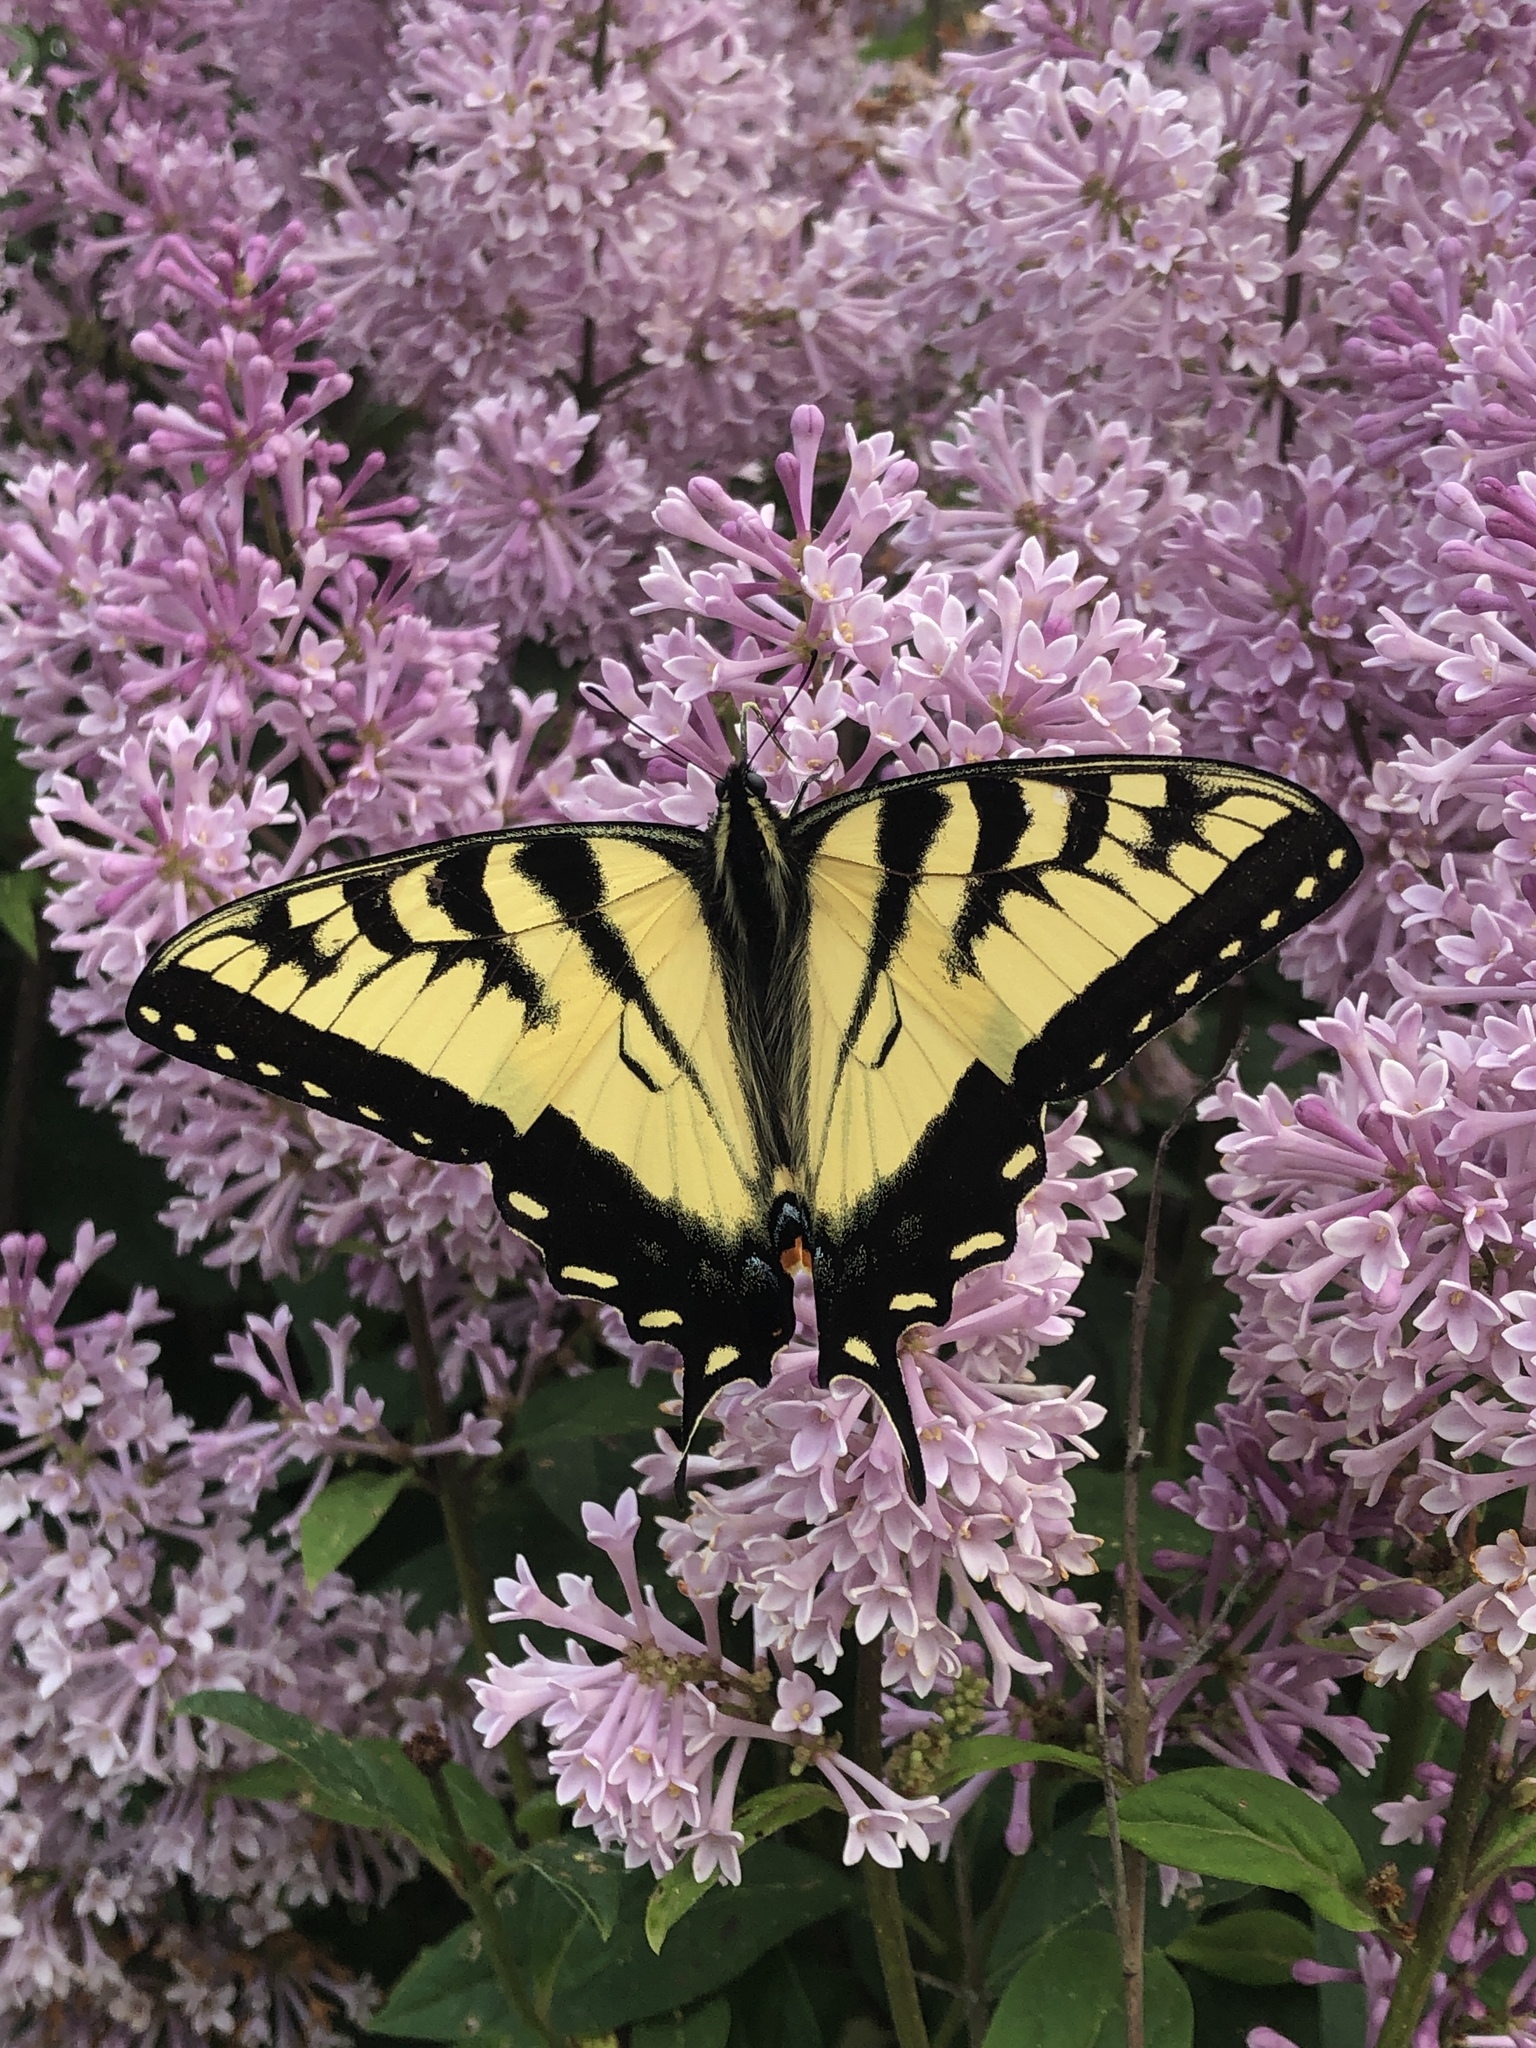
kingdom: Animalia
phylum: Arthropoda
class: Insecta
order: Lepidoptera
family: Papilionidae
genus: Papilio
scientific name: Papilio glaucus
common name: Tiger swallowtail
